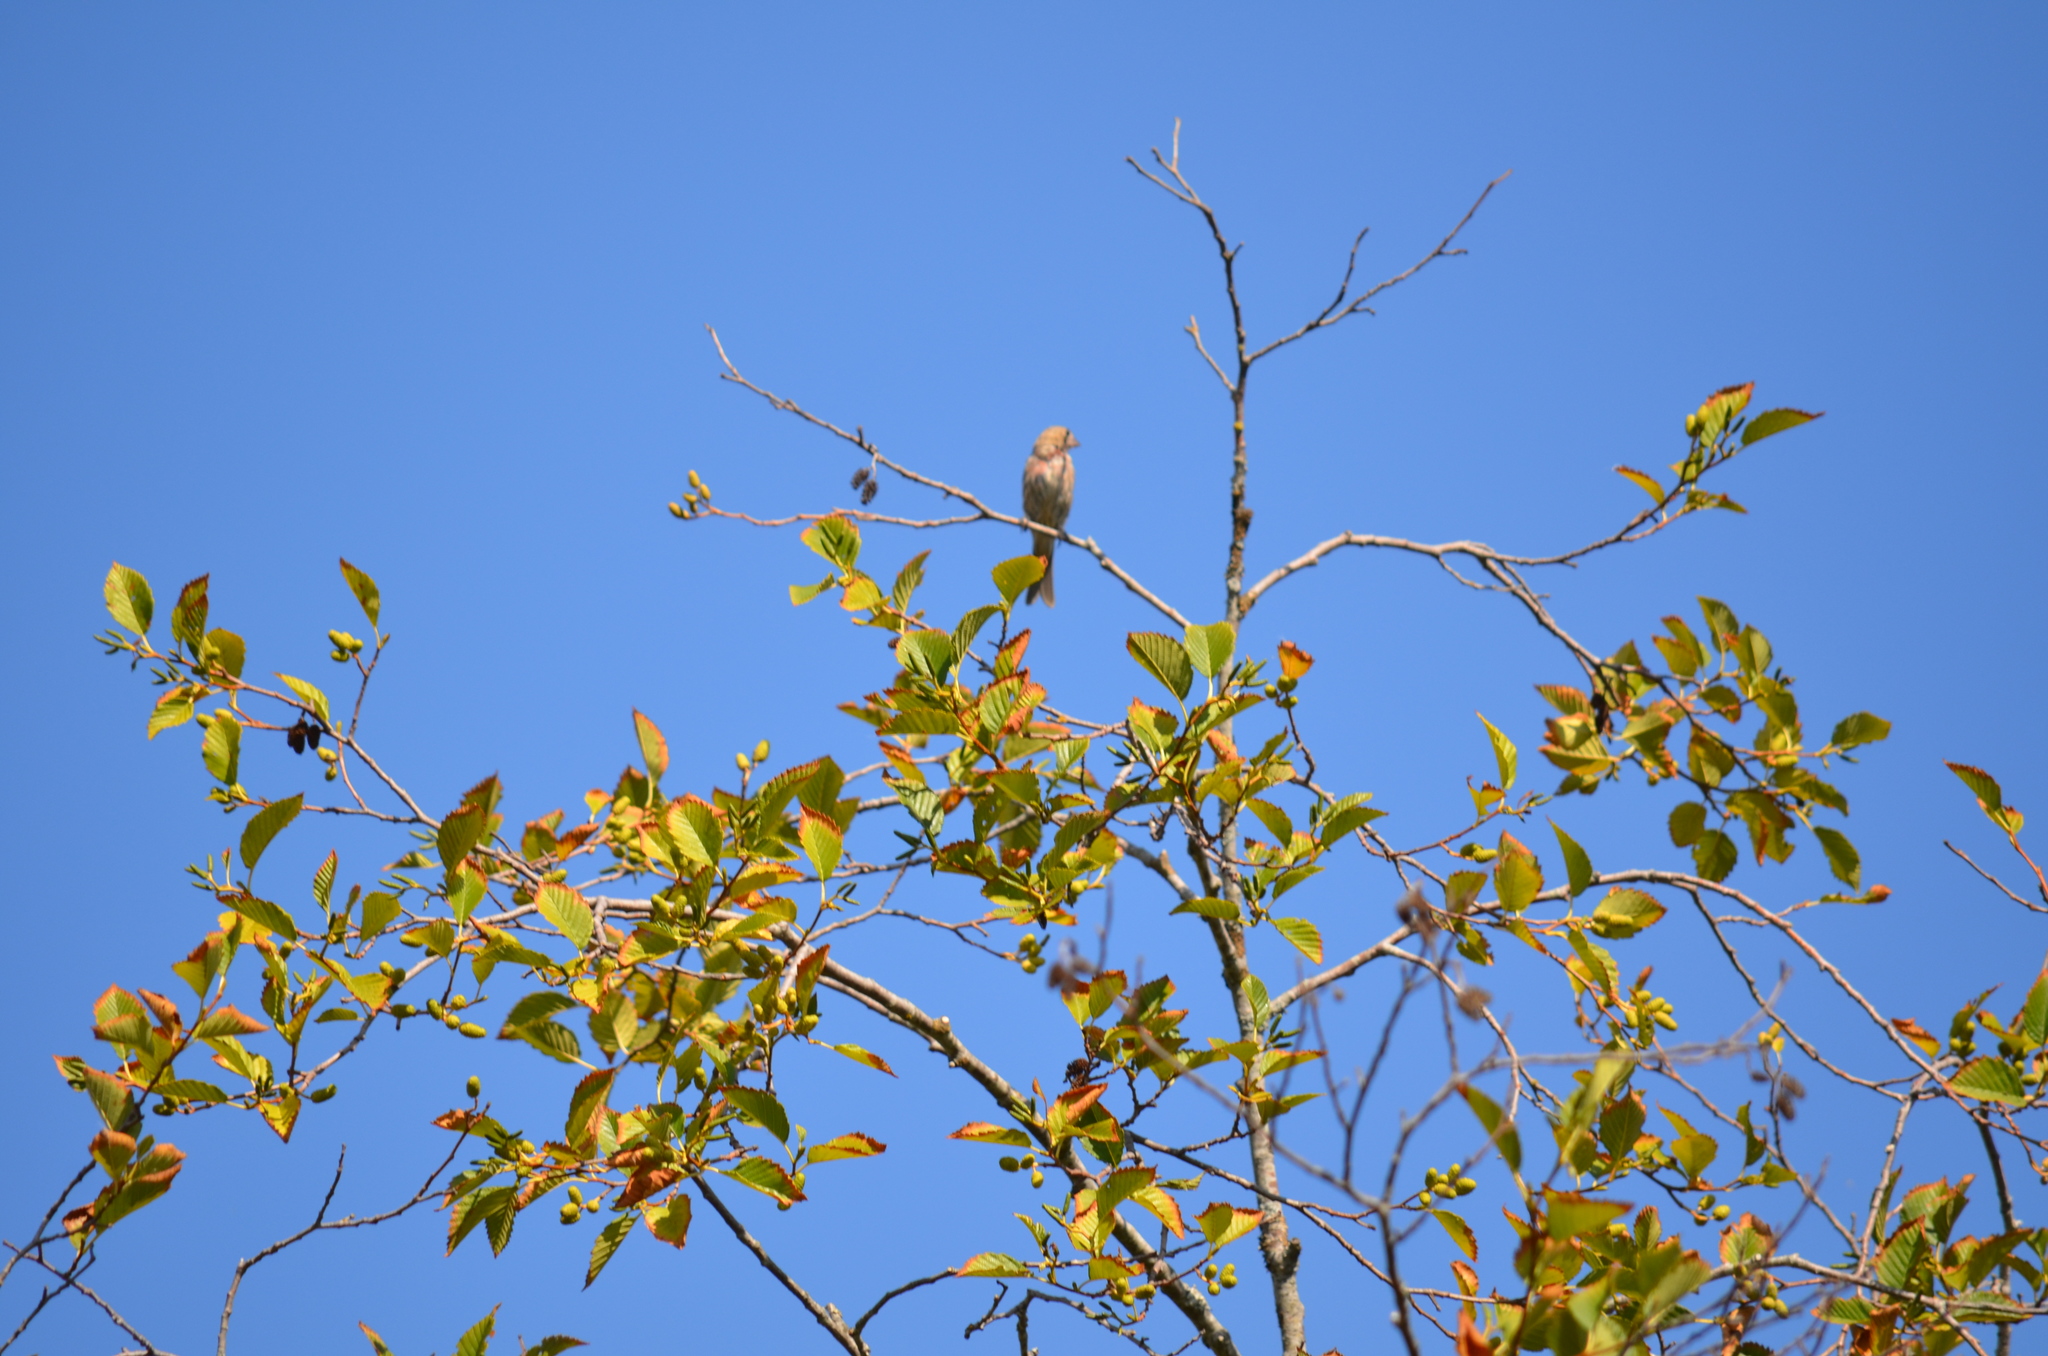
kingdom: Animalia
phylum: Chordata
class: Aves
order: Passeriformes
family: Fringillidae
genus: Haemorhous
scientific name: Haemorhous mexicanus
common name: House finch
